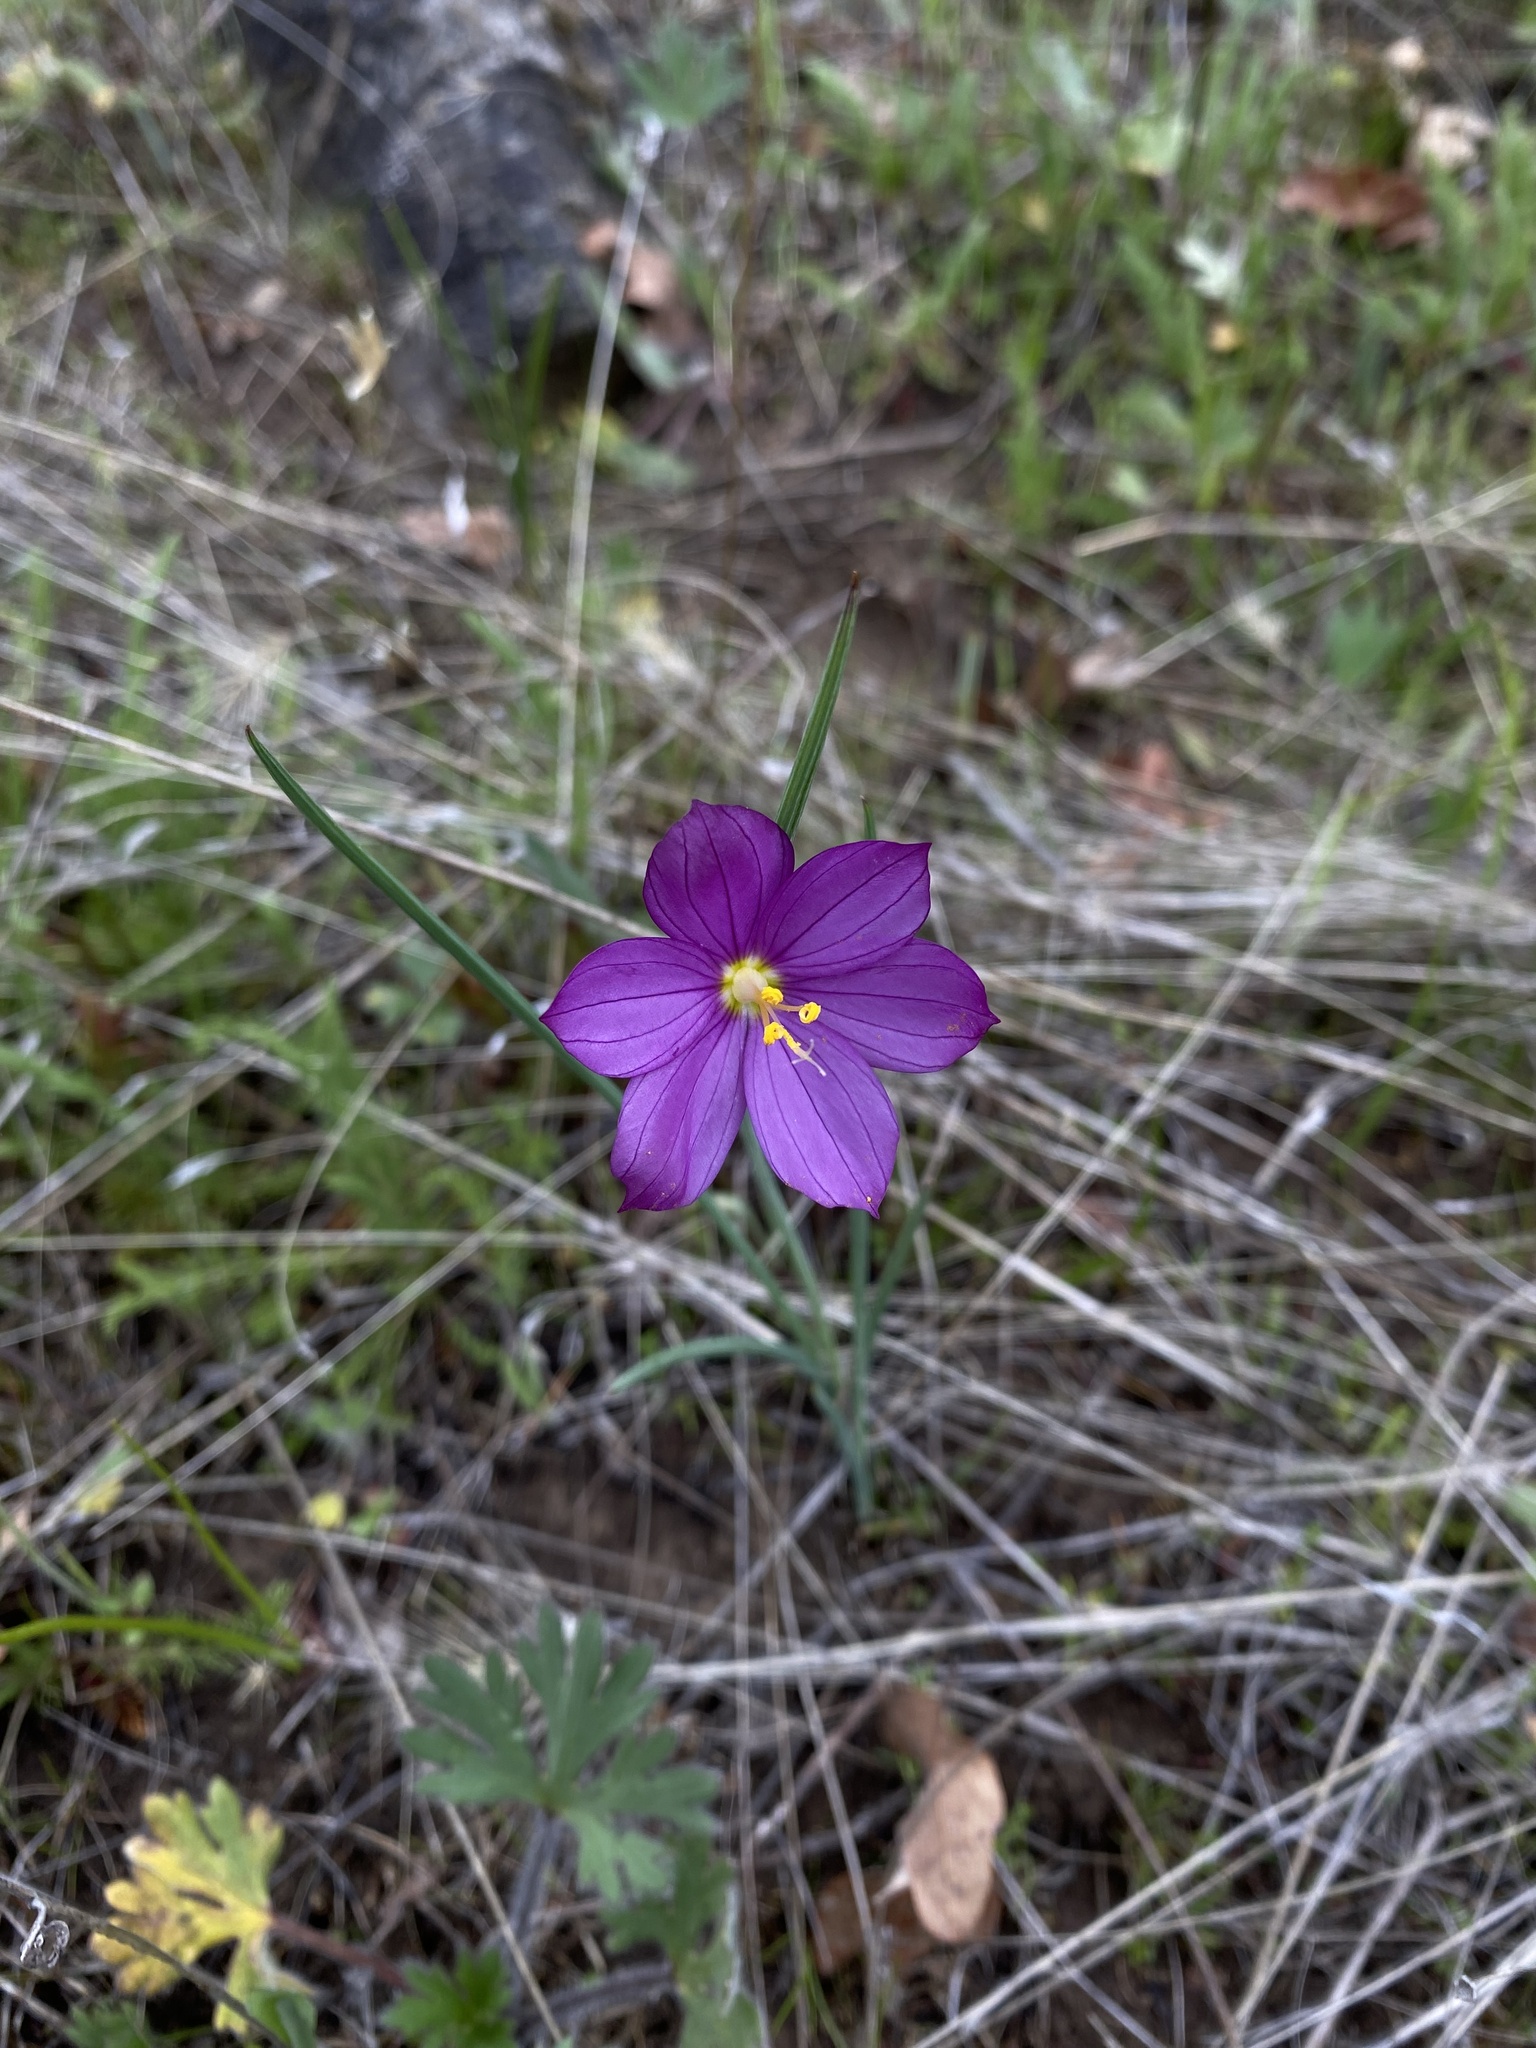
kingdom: Plantae
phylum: Tracheophyta
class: Liliopsida
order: Asparagales
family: Iridaceae
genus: Olsynium
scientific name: Olsynium douglasii
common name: Douglas' grasswidow
